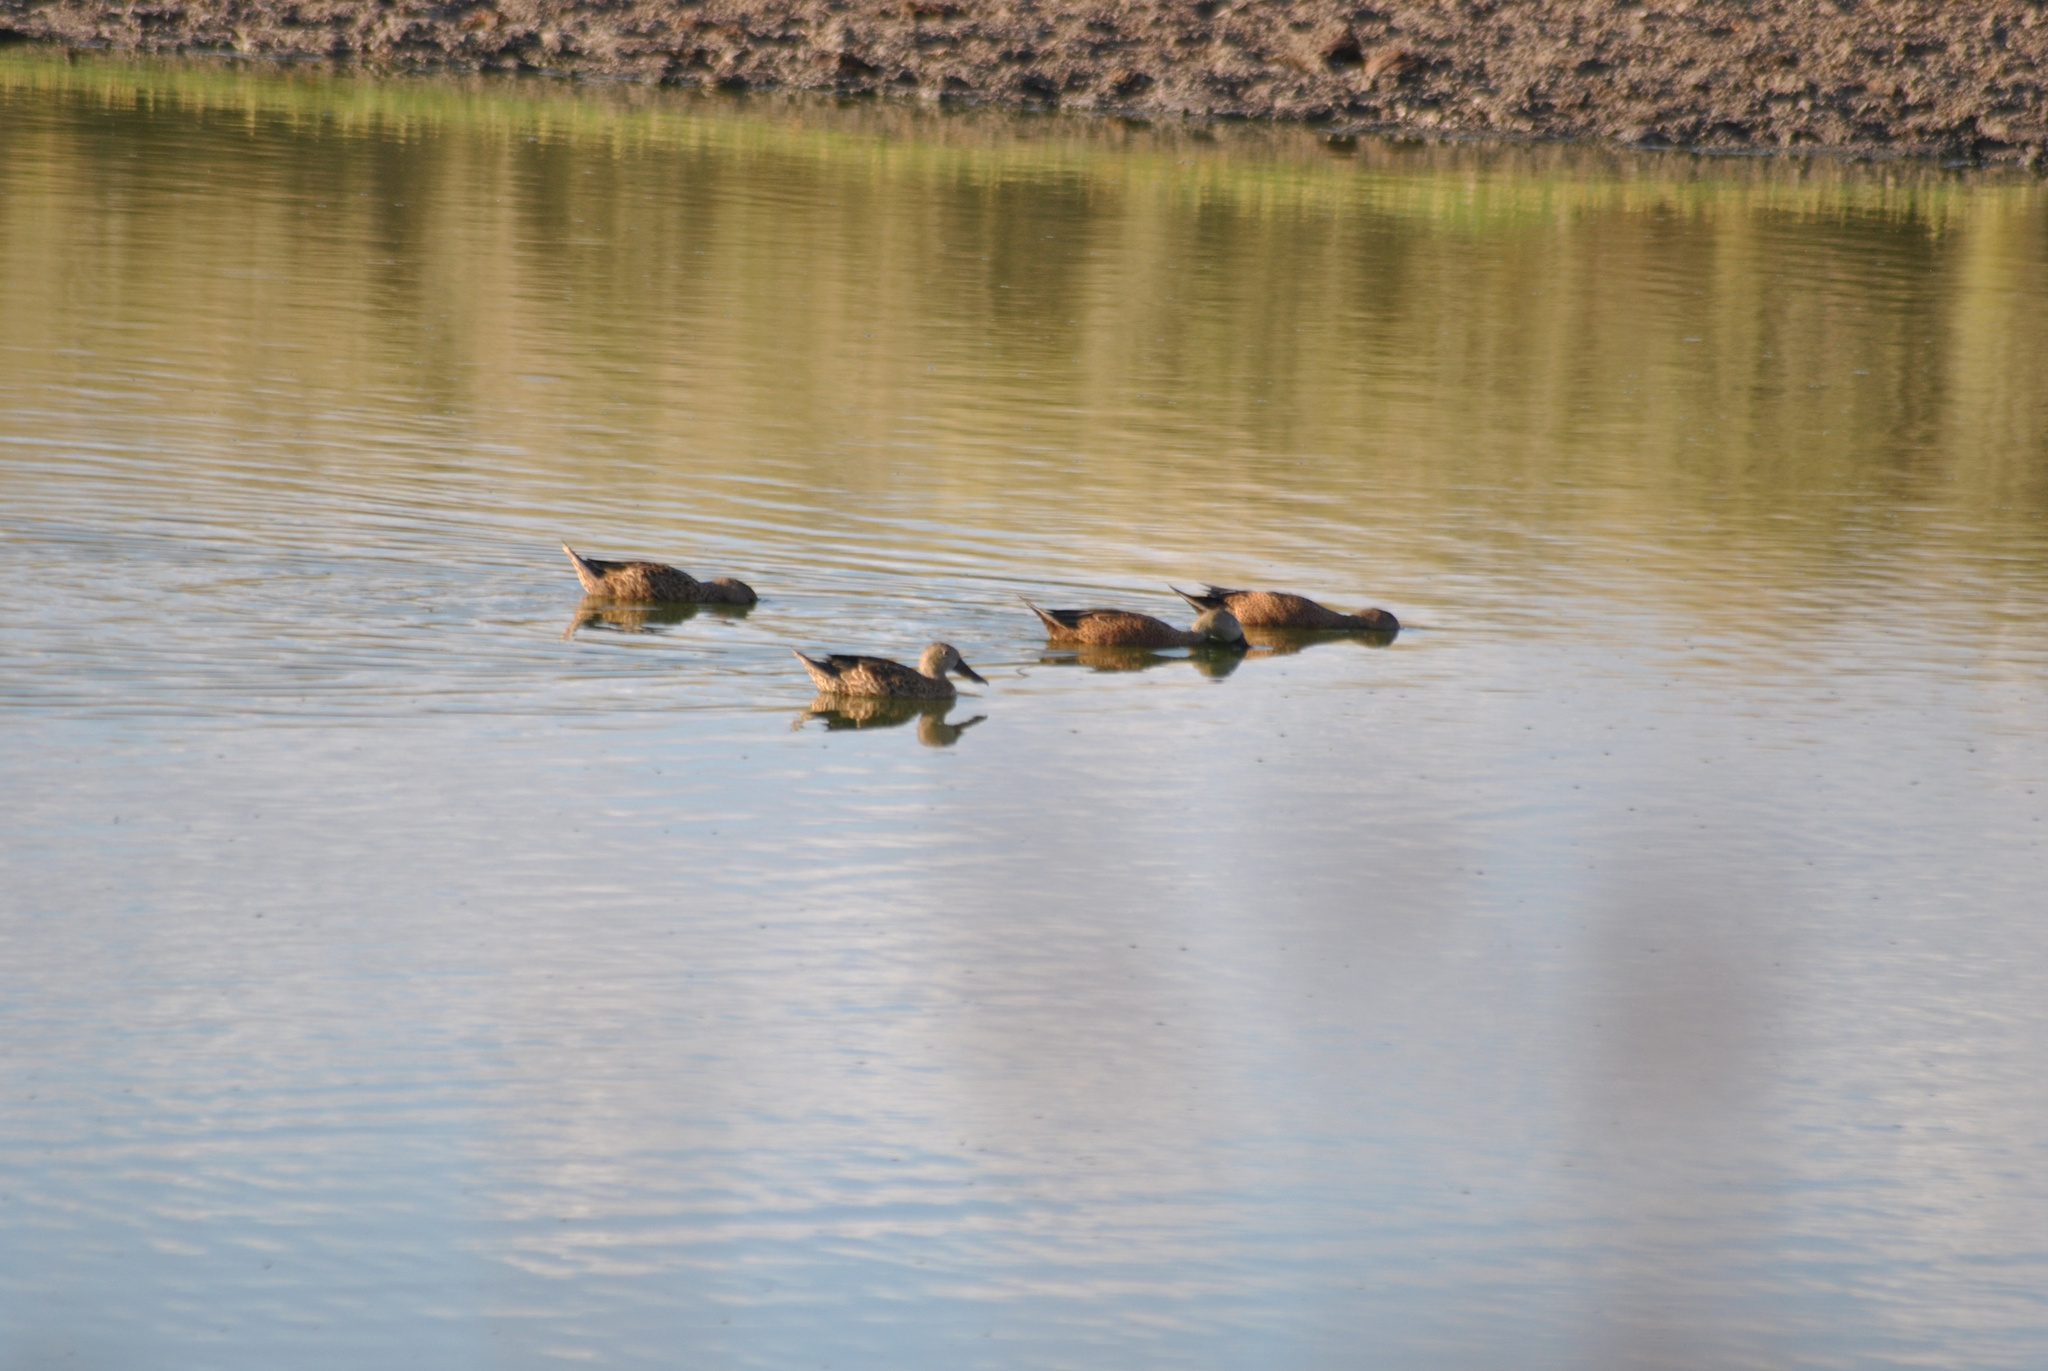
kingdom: Animalia
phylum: Chordata
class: Aves
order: Anseriformes
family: Anatidae
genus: Spatula
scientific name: Spatula platalea
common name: Red shoveler
